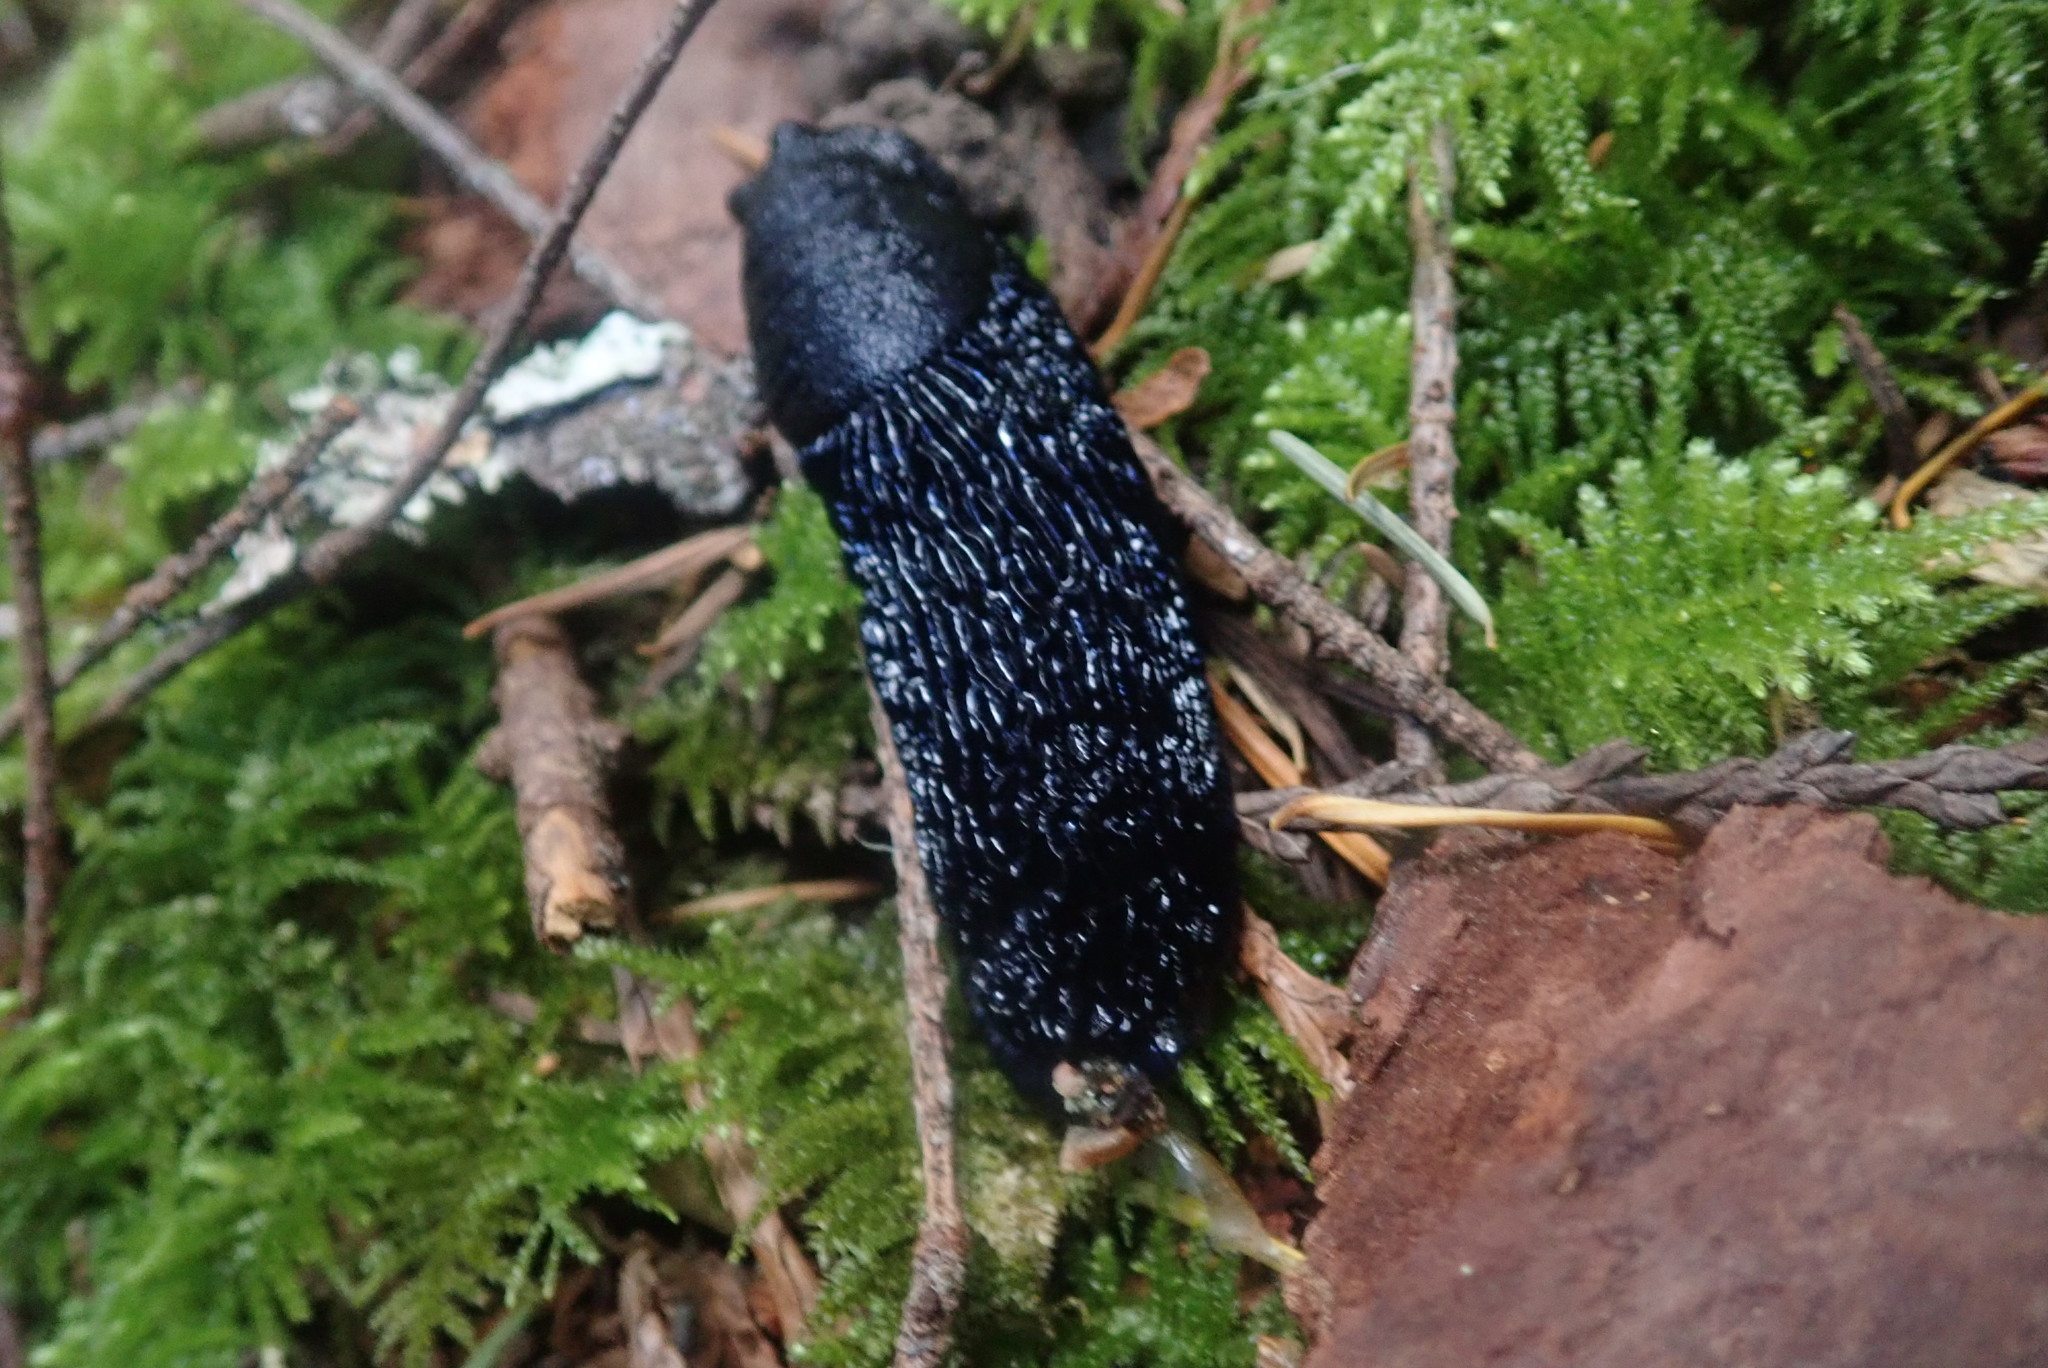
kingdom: Animalia
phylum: Mollusca
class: Gastropoda
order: Stylommatophora
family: Arionidae
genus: Arion
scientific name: Arion
